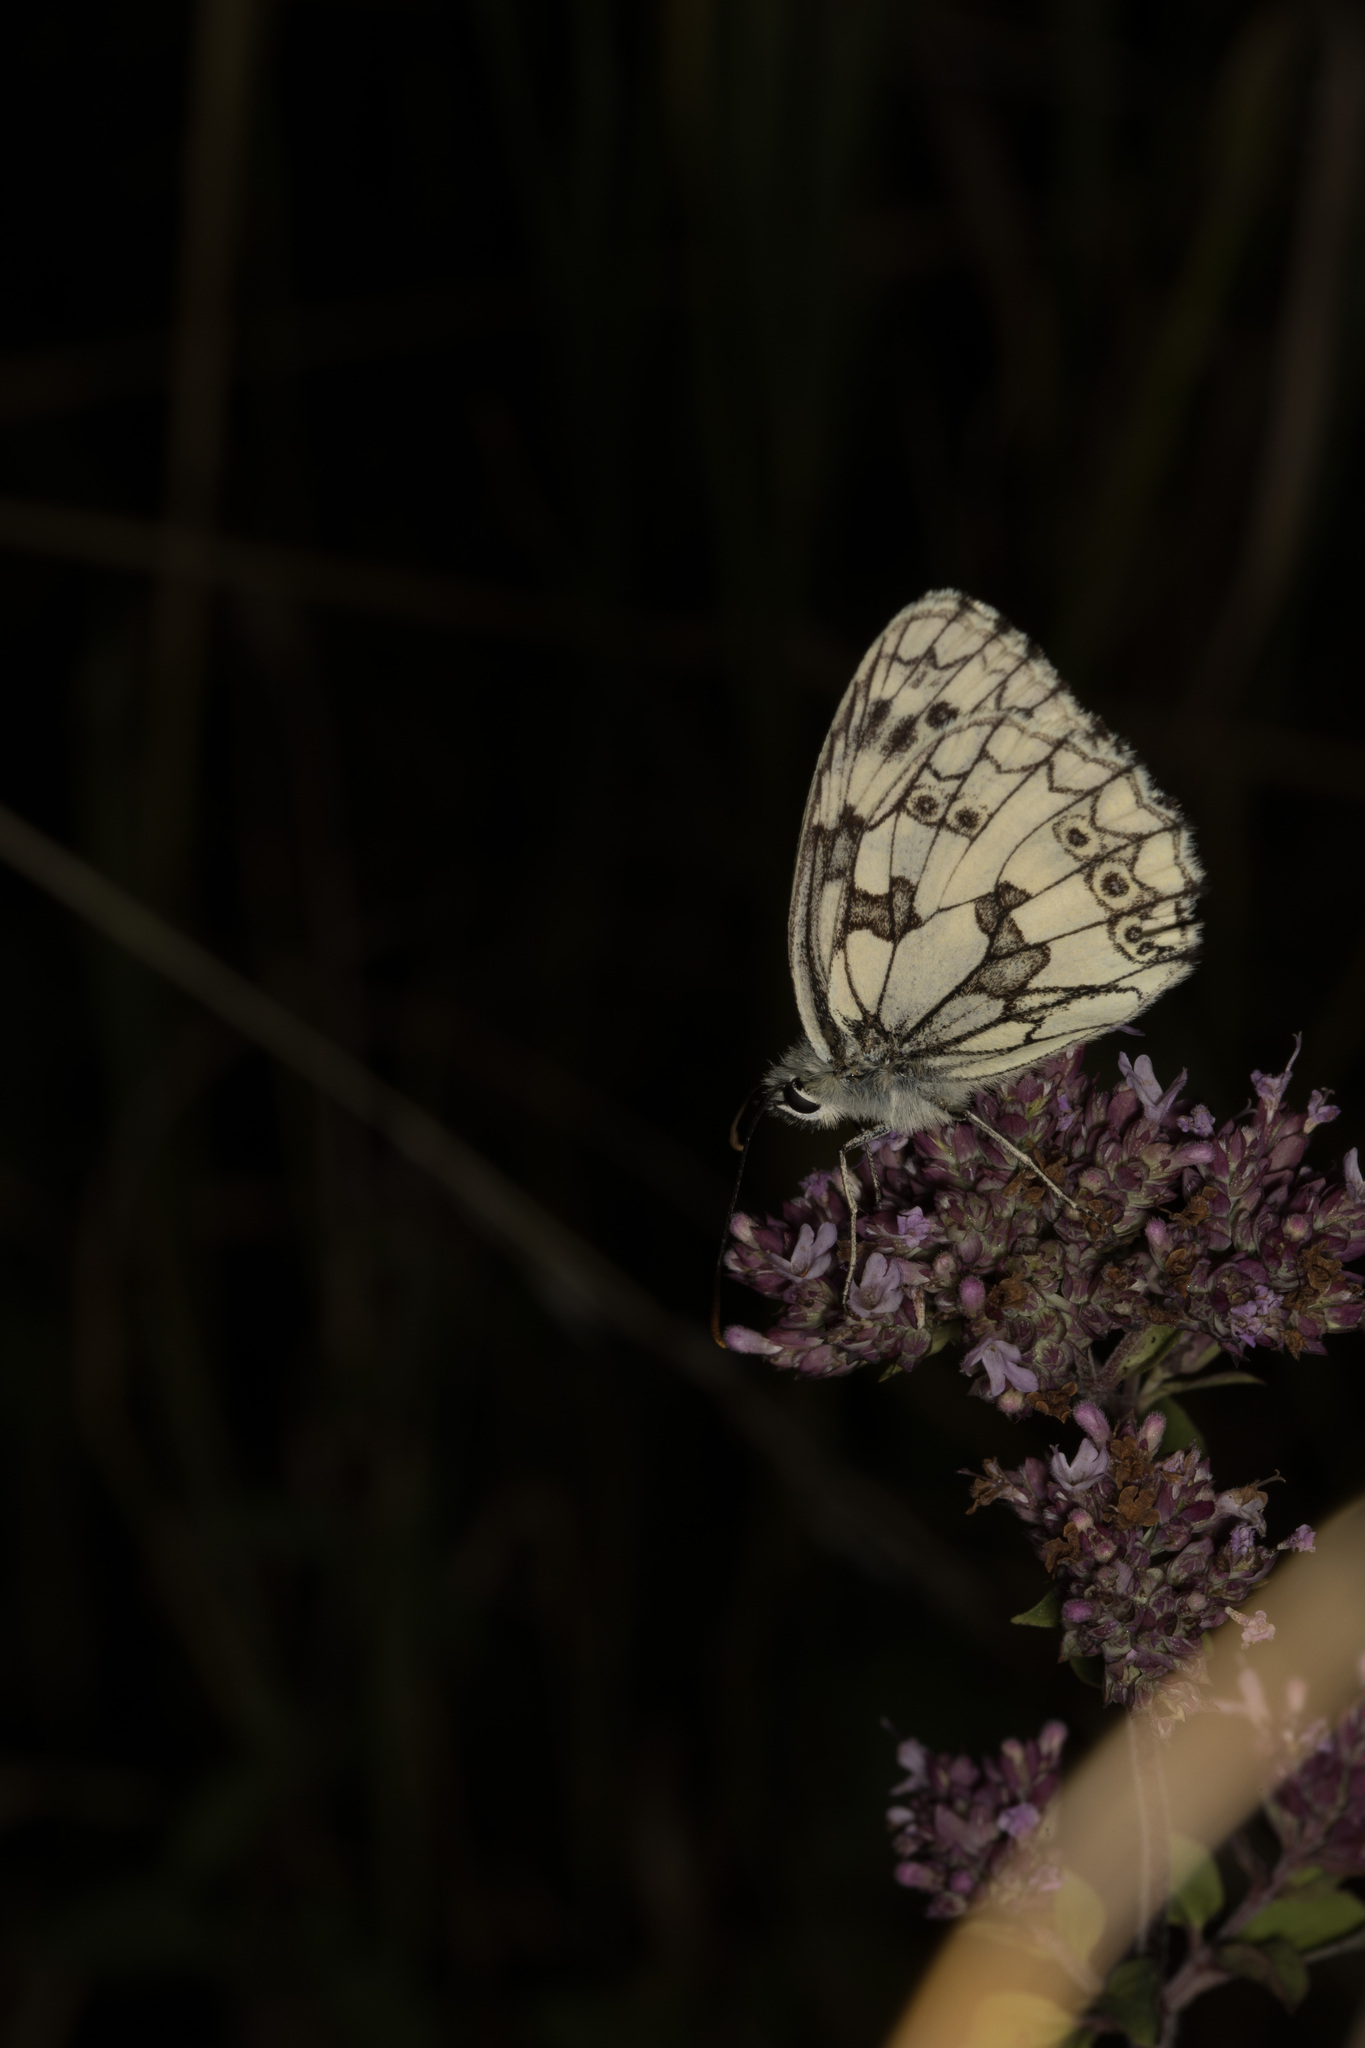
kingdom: Animalia
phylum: Arthropoda
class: Insecta
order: Lepidoptera
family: Nymphalidae
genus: Melanargia
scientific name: Melanargia galathea
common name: Marbled white
